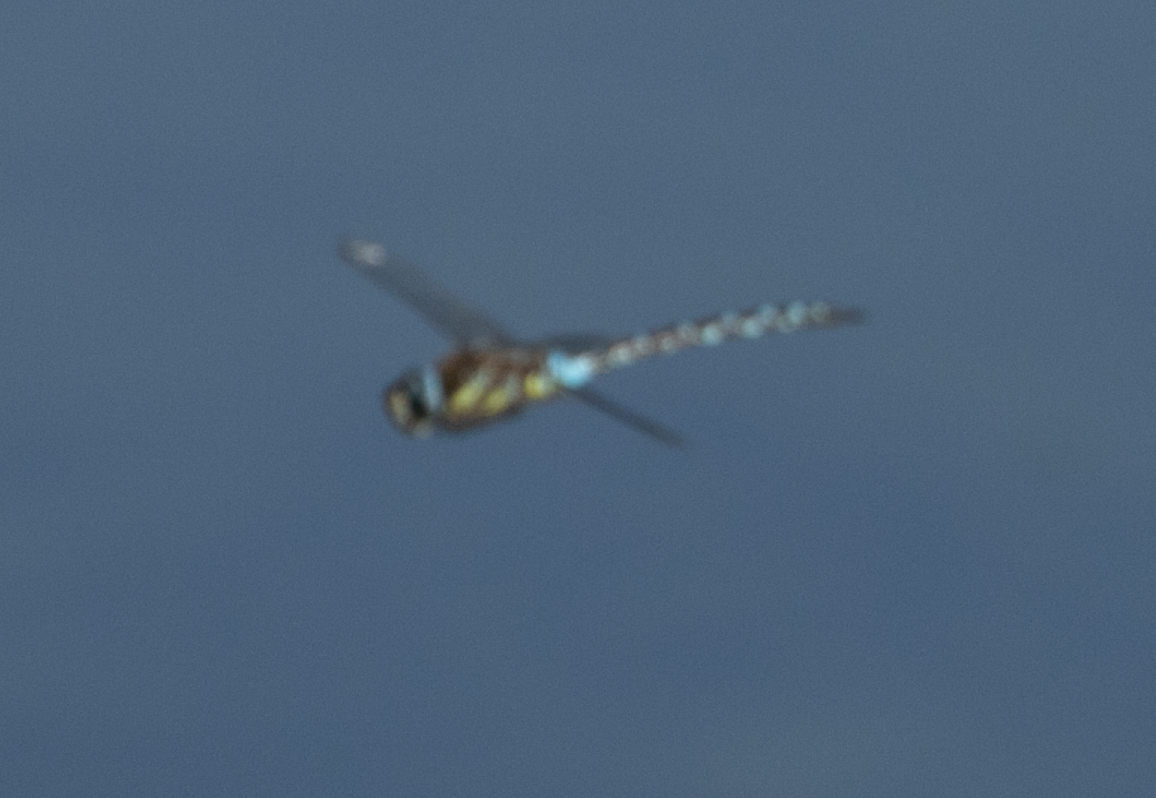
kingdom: Animalia
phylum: Arthropoda
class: Insecta
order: Odonata
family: Aeshnidae
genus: Aeshna
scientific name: Aeshna mixta
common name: Migrant hawker
